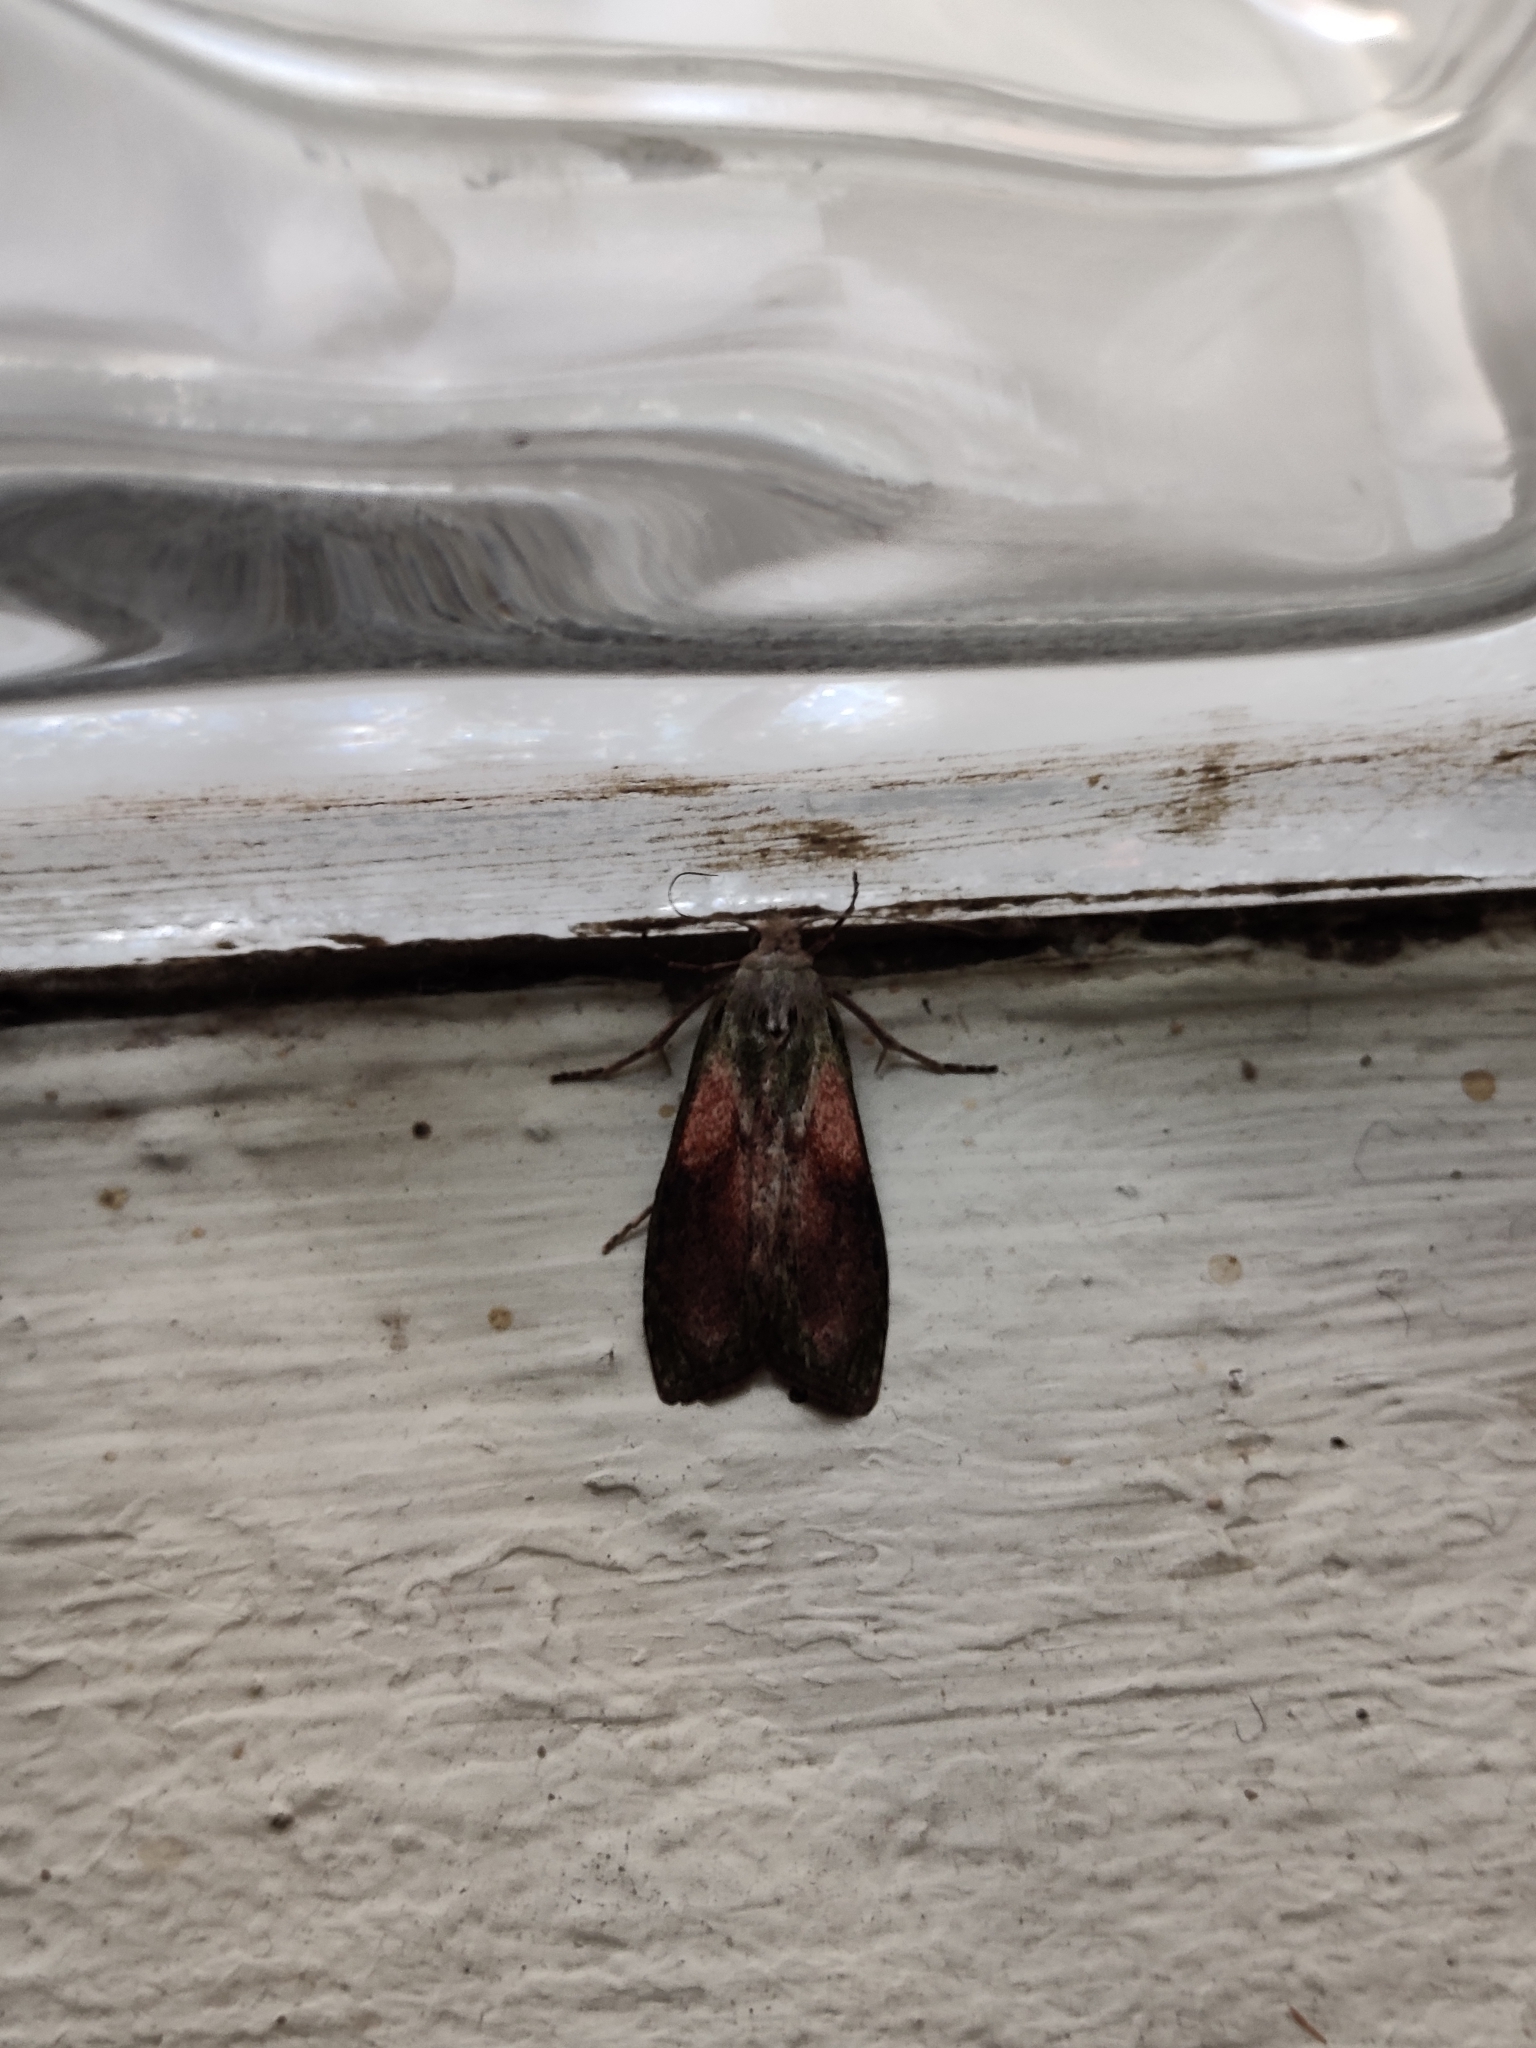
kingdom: Animalia
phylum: Arthropoda
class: Insecta
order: Lepidoptera
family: Pyralidae
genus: Aphomia
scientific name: Aphomia sociella
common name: Bee moth
